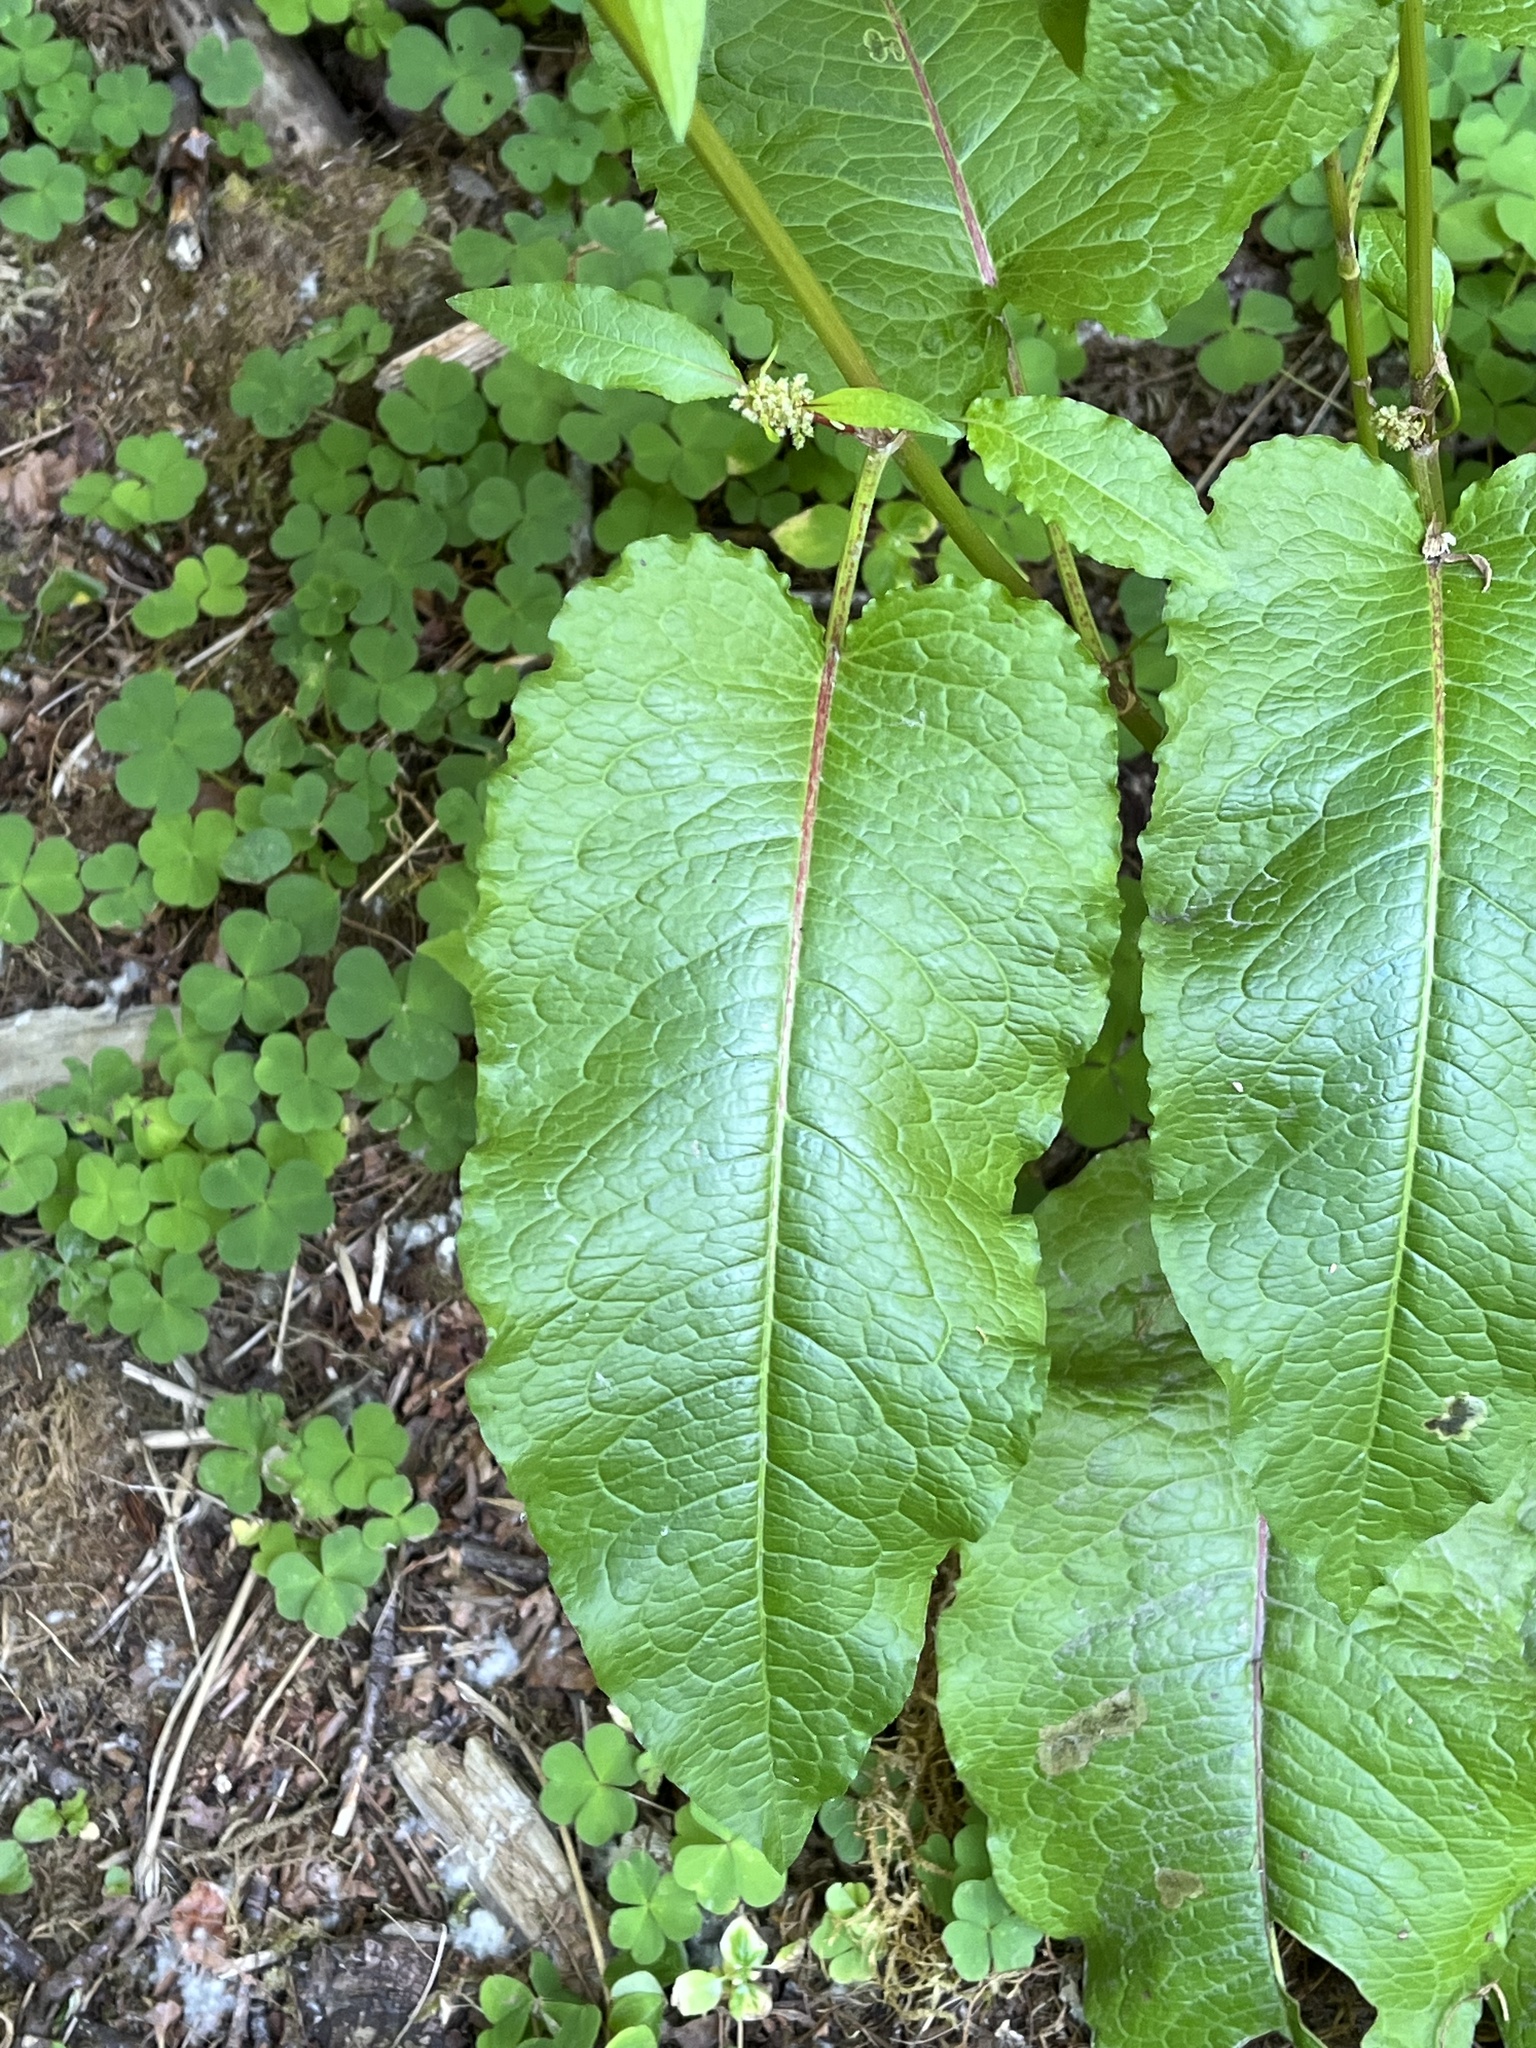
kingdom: Plantae
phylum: Tracheophyta
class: Magnoliopsida
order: Caryophyllales
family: Polygonaceae
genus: Rumex
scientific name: Rumex obtusifolius
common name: Bitter dock
